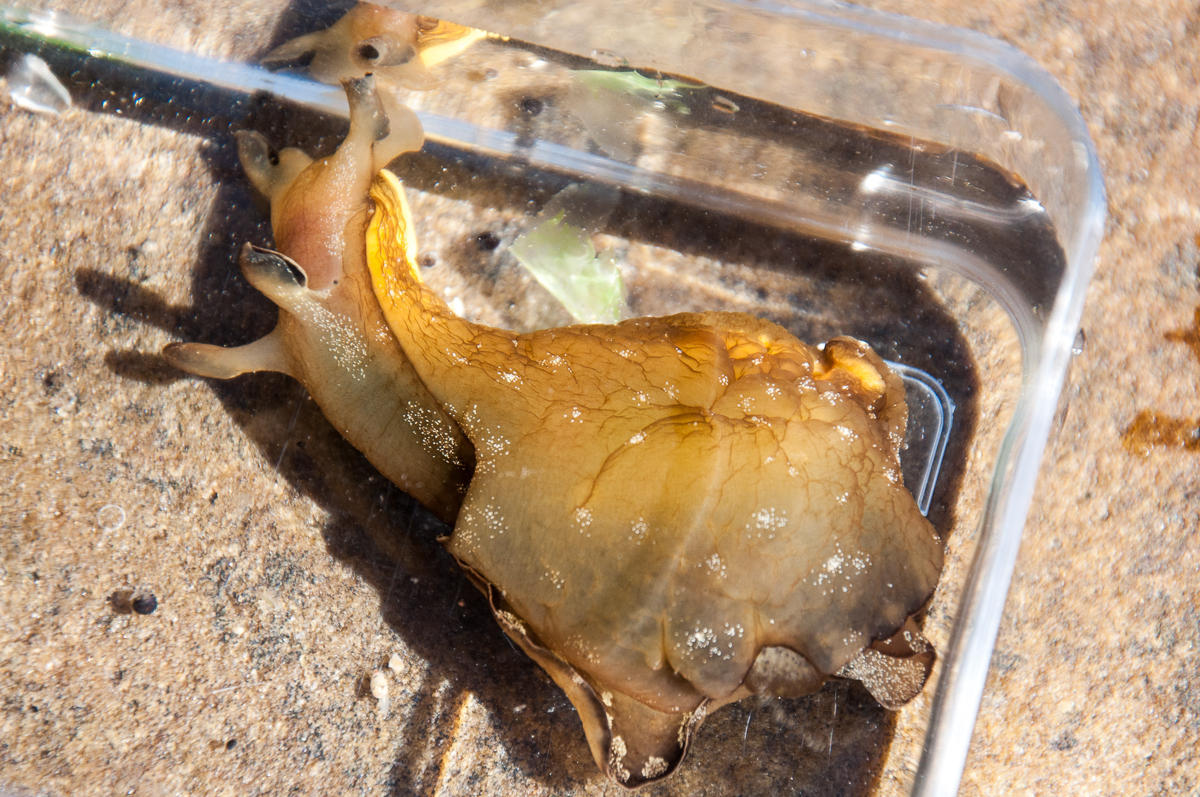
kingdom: Animalia
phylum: Mollusca
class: Gastropoda
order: Aplysiida
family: Aplysiidae
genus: Aplysia
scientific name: Aplysia parvula
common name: Dwarf sea hare
